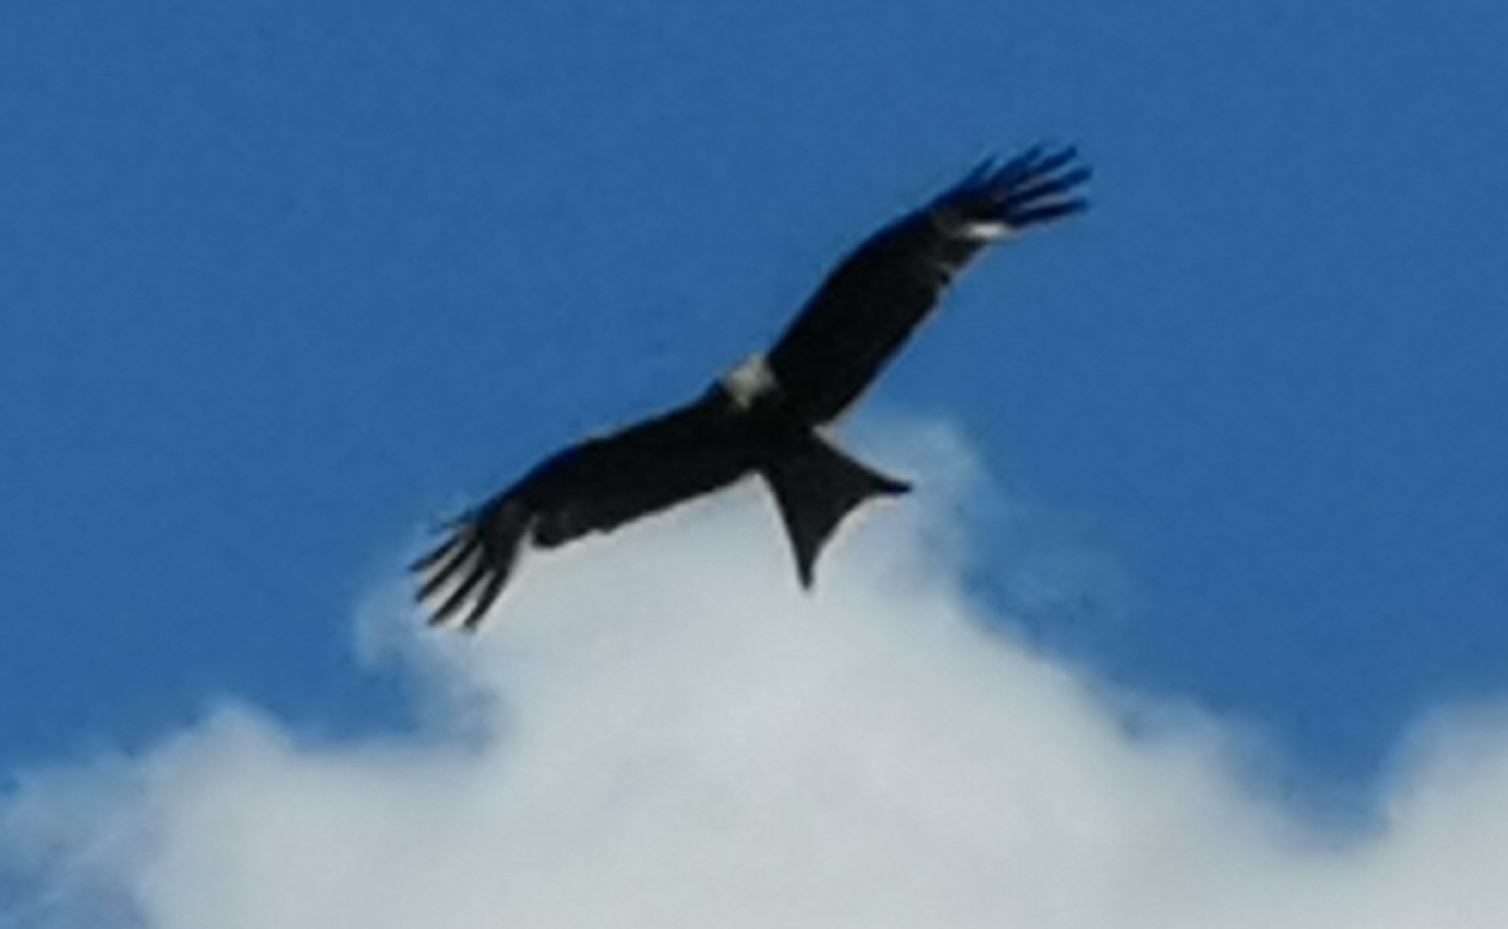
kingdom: Animalia
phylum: Chordata
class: Aves
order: Accipitriformes
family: Accipitridae
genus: Milvus
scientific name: Milvus milvus
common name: Red kite
